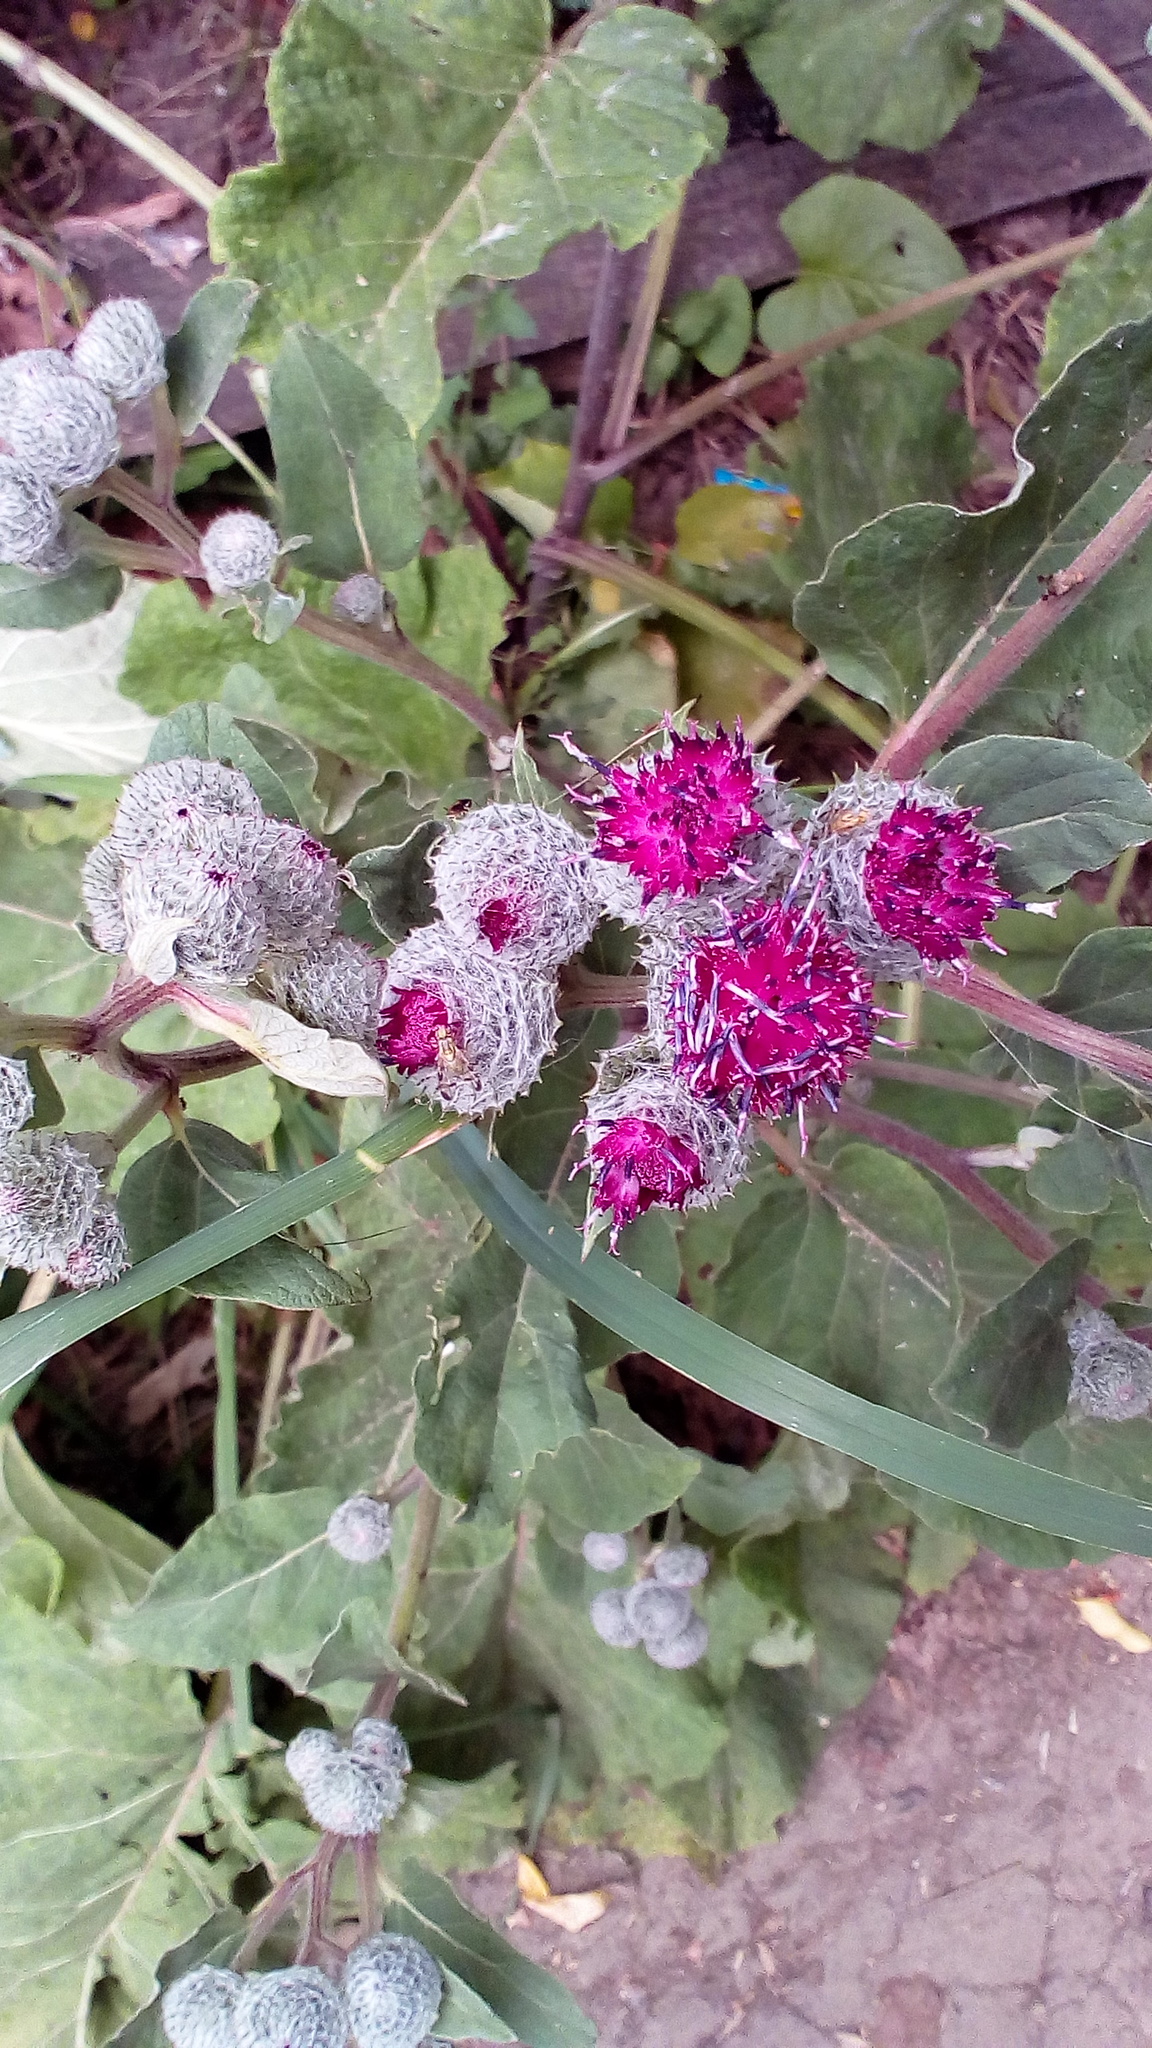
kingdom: Plantae
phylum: Tracheophyta
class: Magnoliopsida
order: Asterales
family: Asteraceae
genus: Arctium
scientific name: Arctium tomentosum
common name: Woolly burdock
